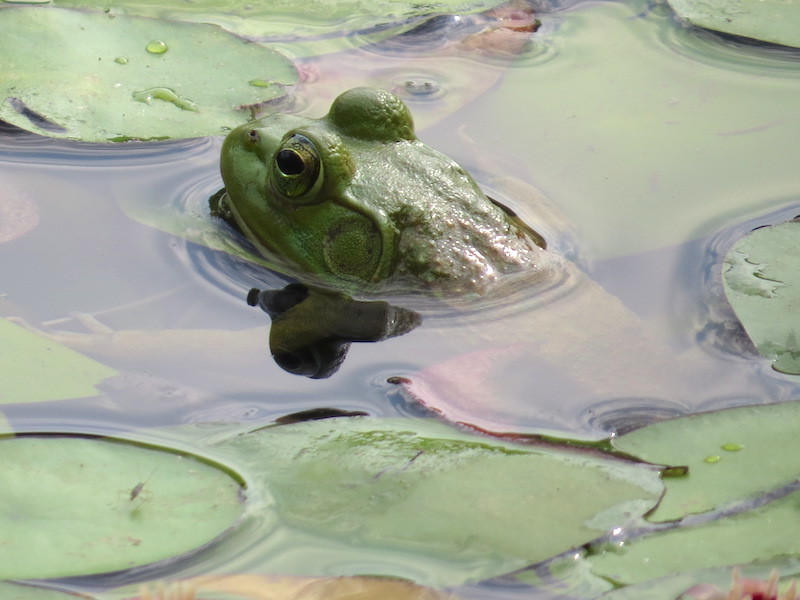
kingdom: Animalia
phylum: Chordata
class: Amphibia
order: Anura
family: Ranidae
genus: Lithobates
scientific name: Lithobates catesbeianus
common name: American bullfrog
